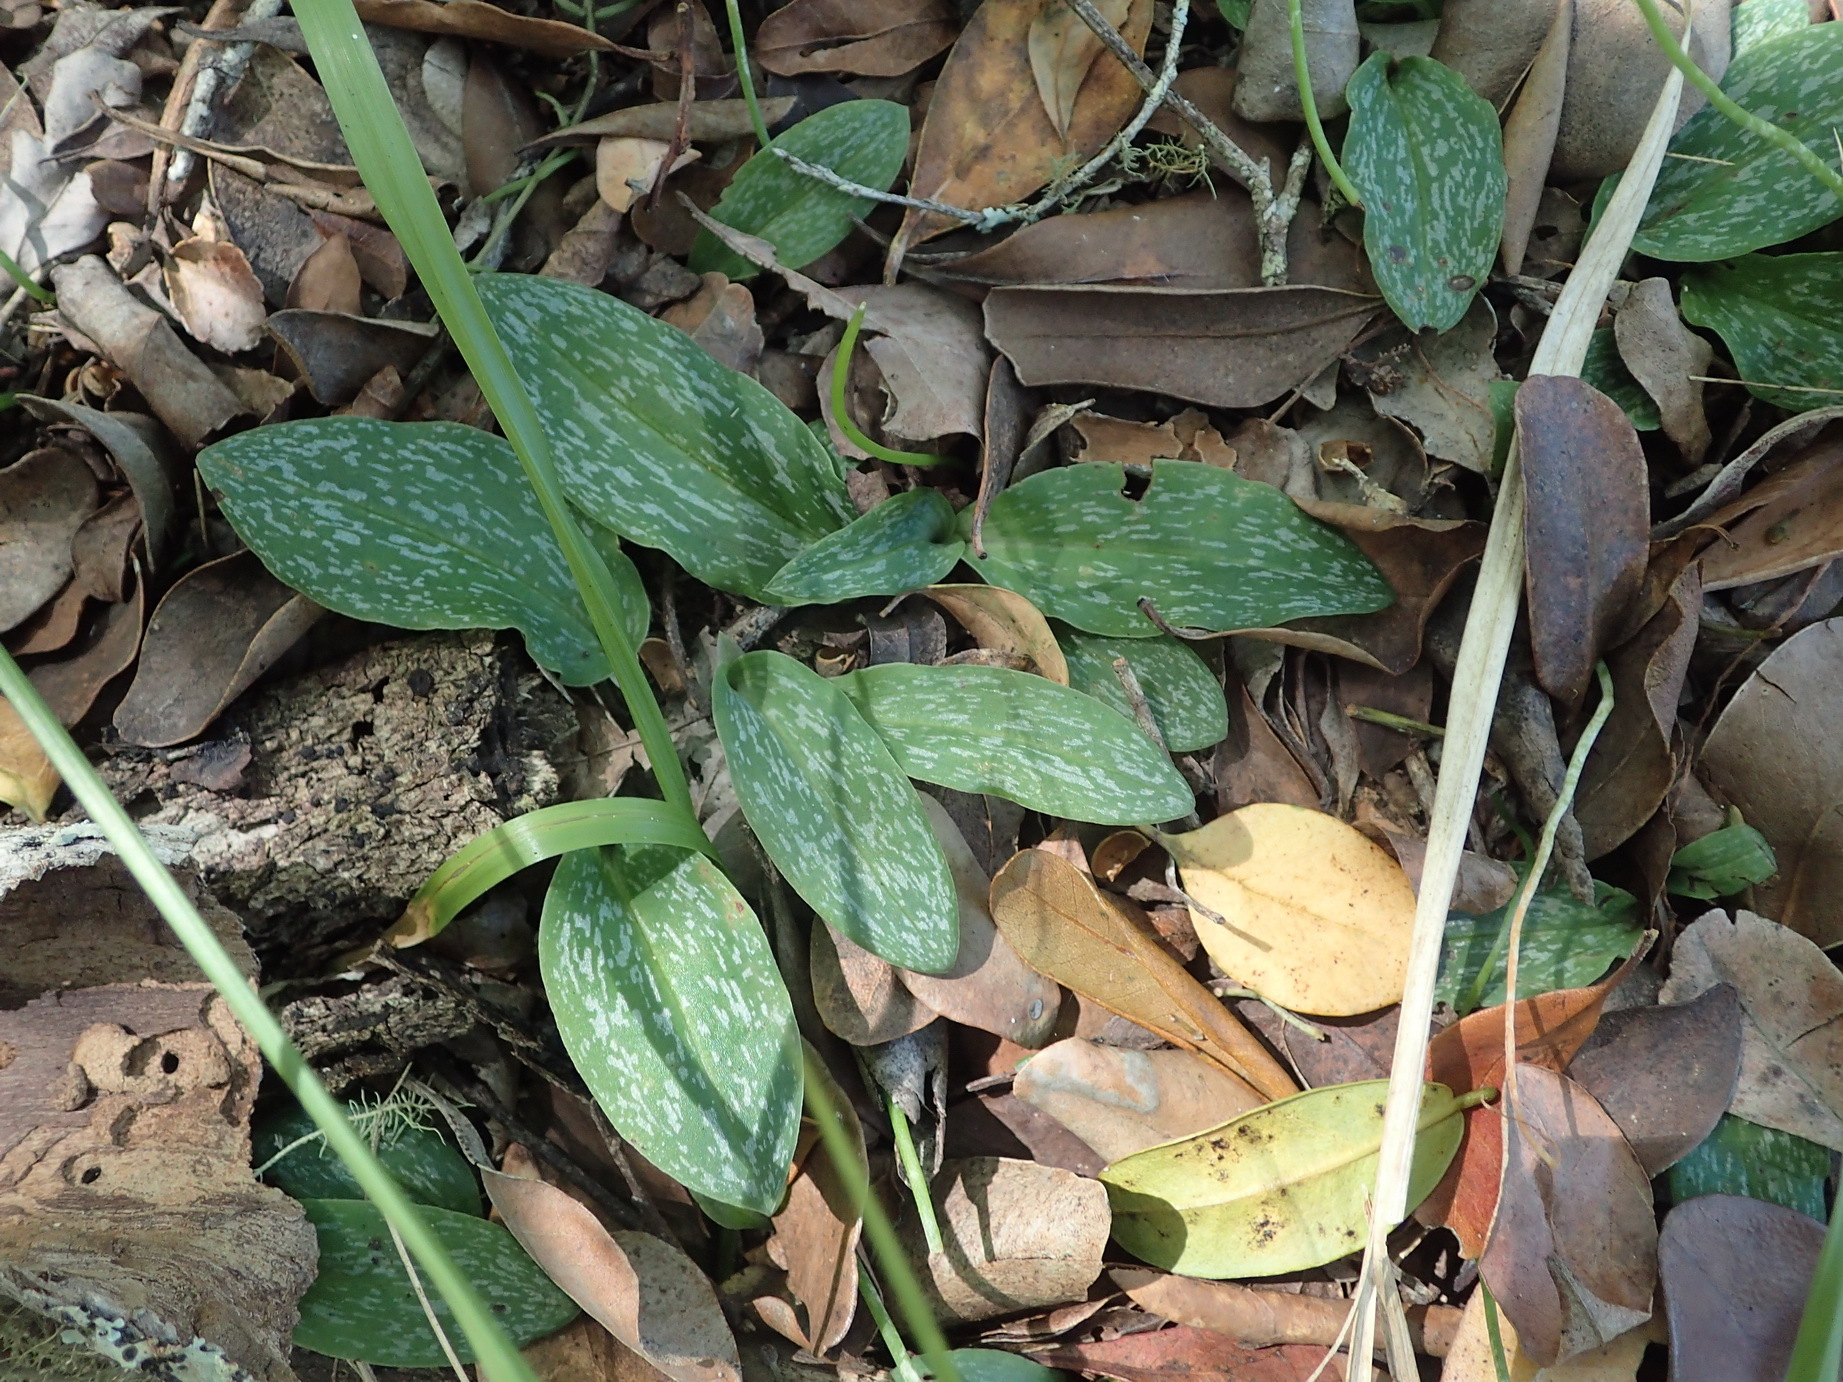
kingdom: Plantae
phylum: Tracheophyta
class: Liliopsida
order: Asparagales
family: Orchidaceae
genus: Habenaria
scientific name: Habenaria arenaria
